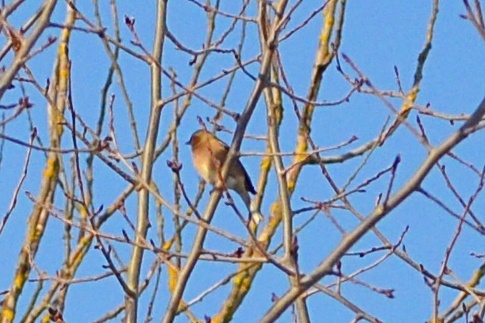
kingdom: Animalia
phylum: Chordata
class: Aves
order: Passeriformes
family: Fringillidae
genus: Fringilla
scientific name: Fringilla coelebs
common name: Common chaffinch
